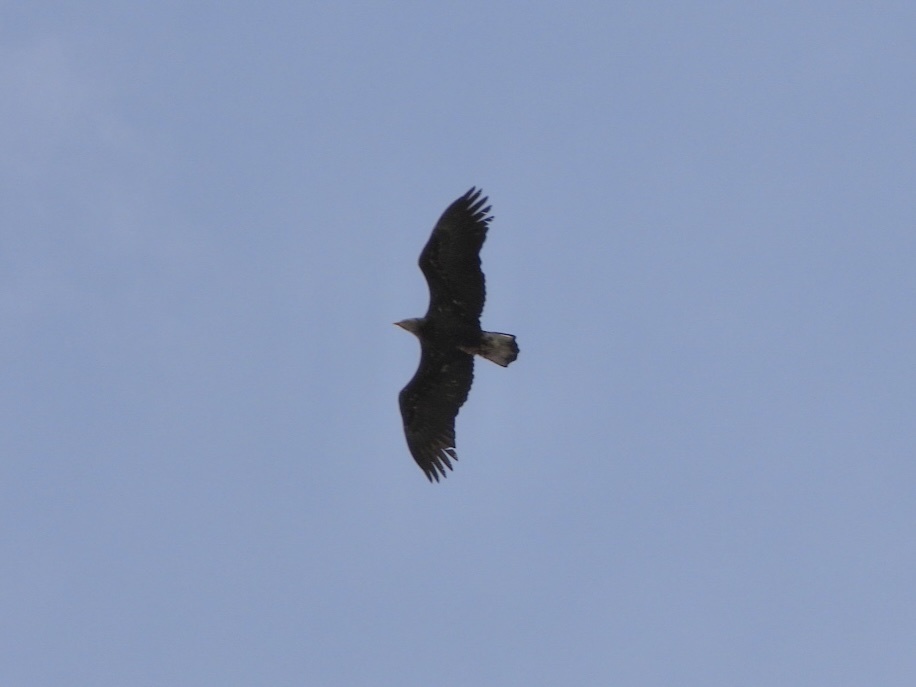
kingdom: Animalia
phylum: Chordata
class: Aves
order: Accipitriformes
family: Accipitridae
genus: Haliaeetus
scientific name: Haliaeetus leucocephalus
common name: Bald eagle
